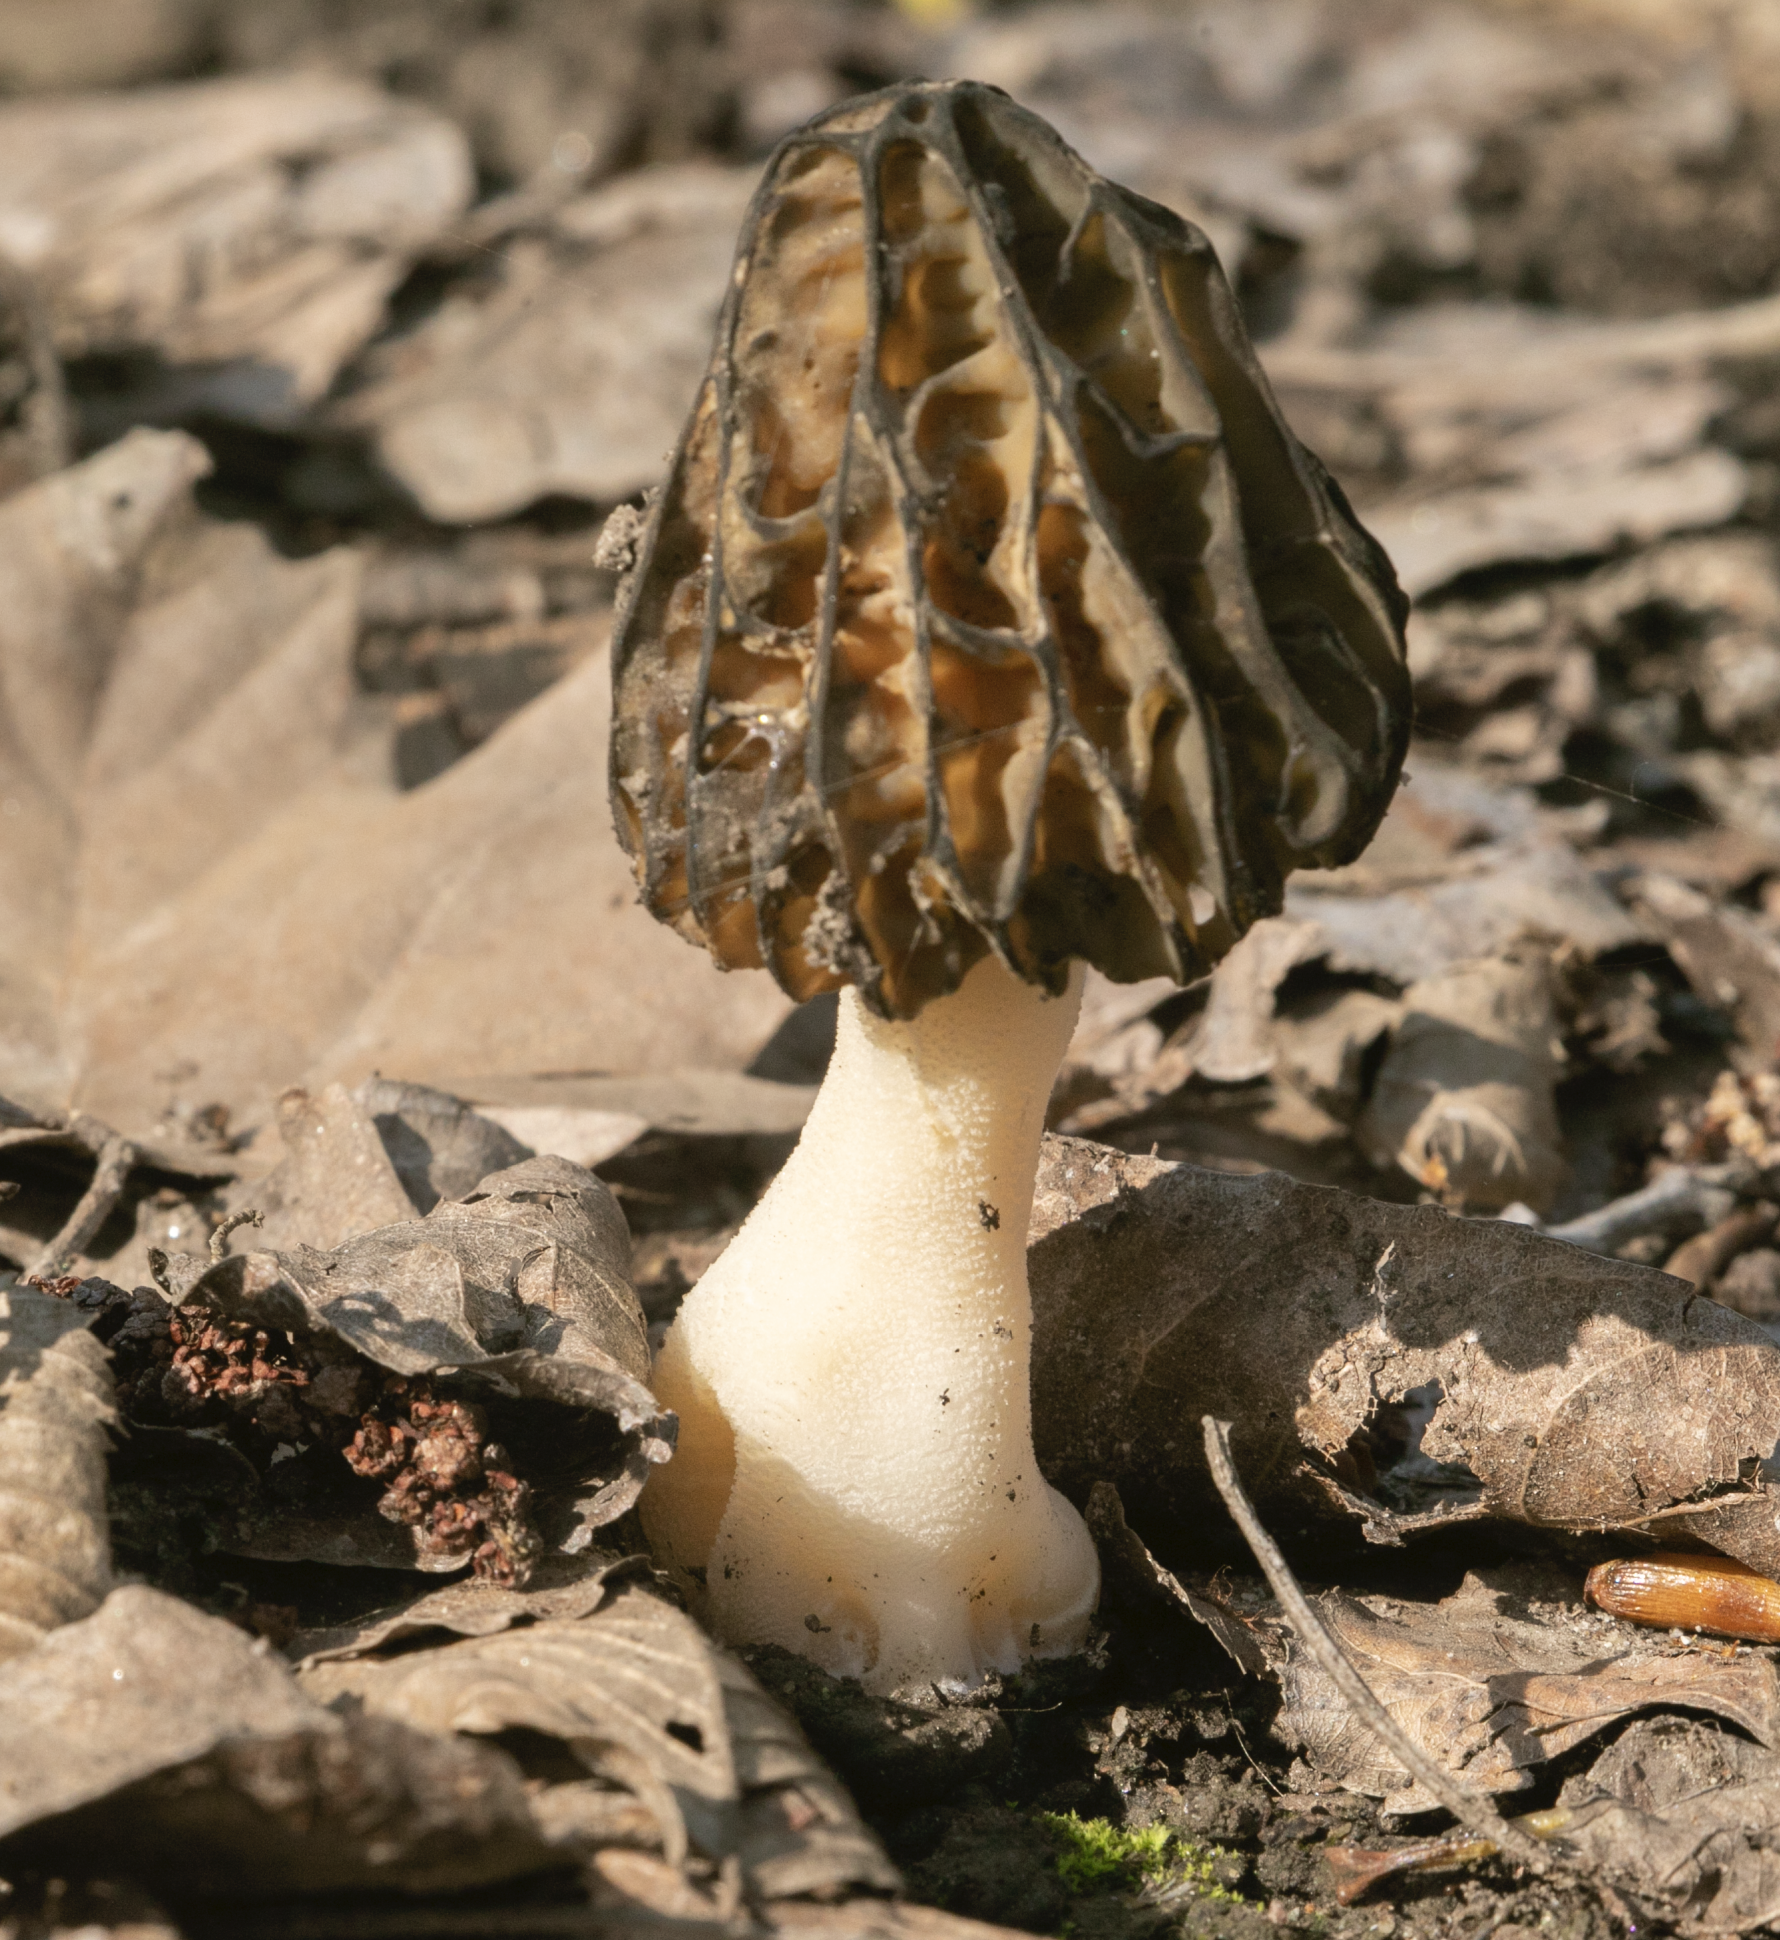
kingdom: Fungi
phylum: Ascomycota
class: Pezizomycetes
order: Pezizales
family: Morchellaceae
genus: Morchella
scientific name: Morchella semilibera
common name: Semifree morel
